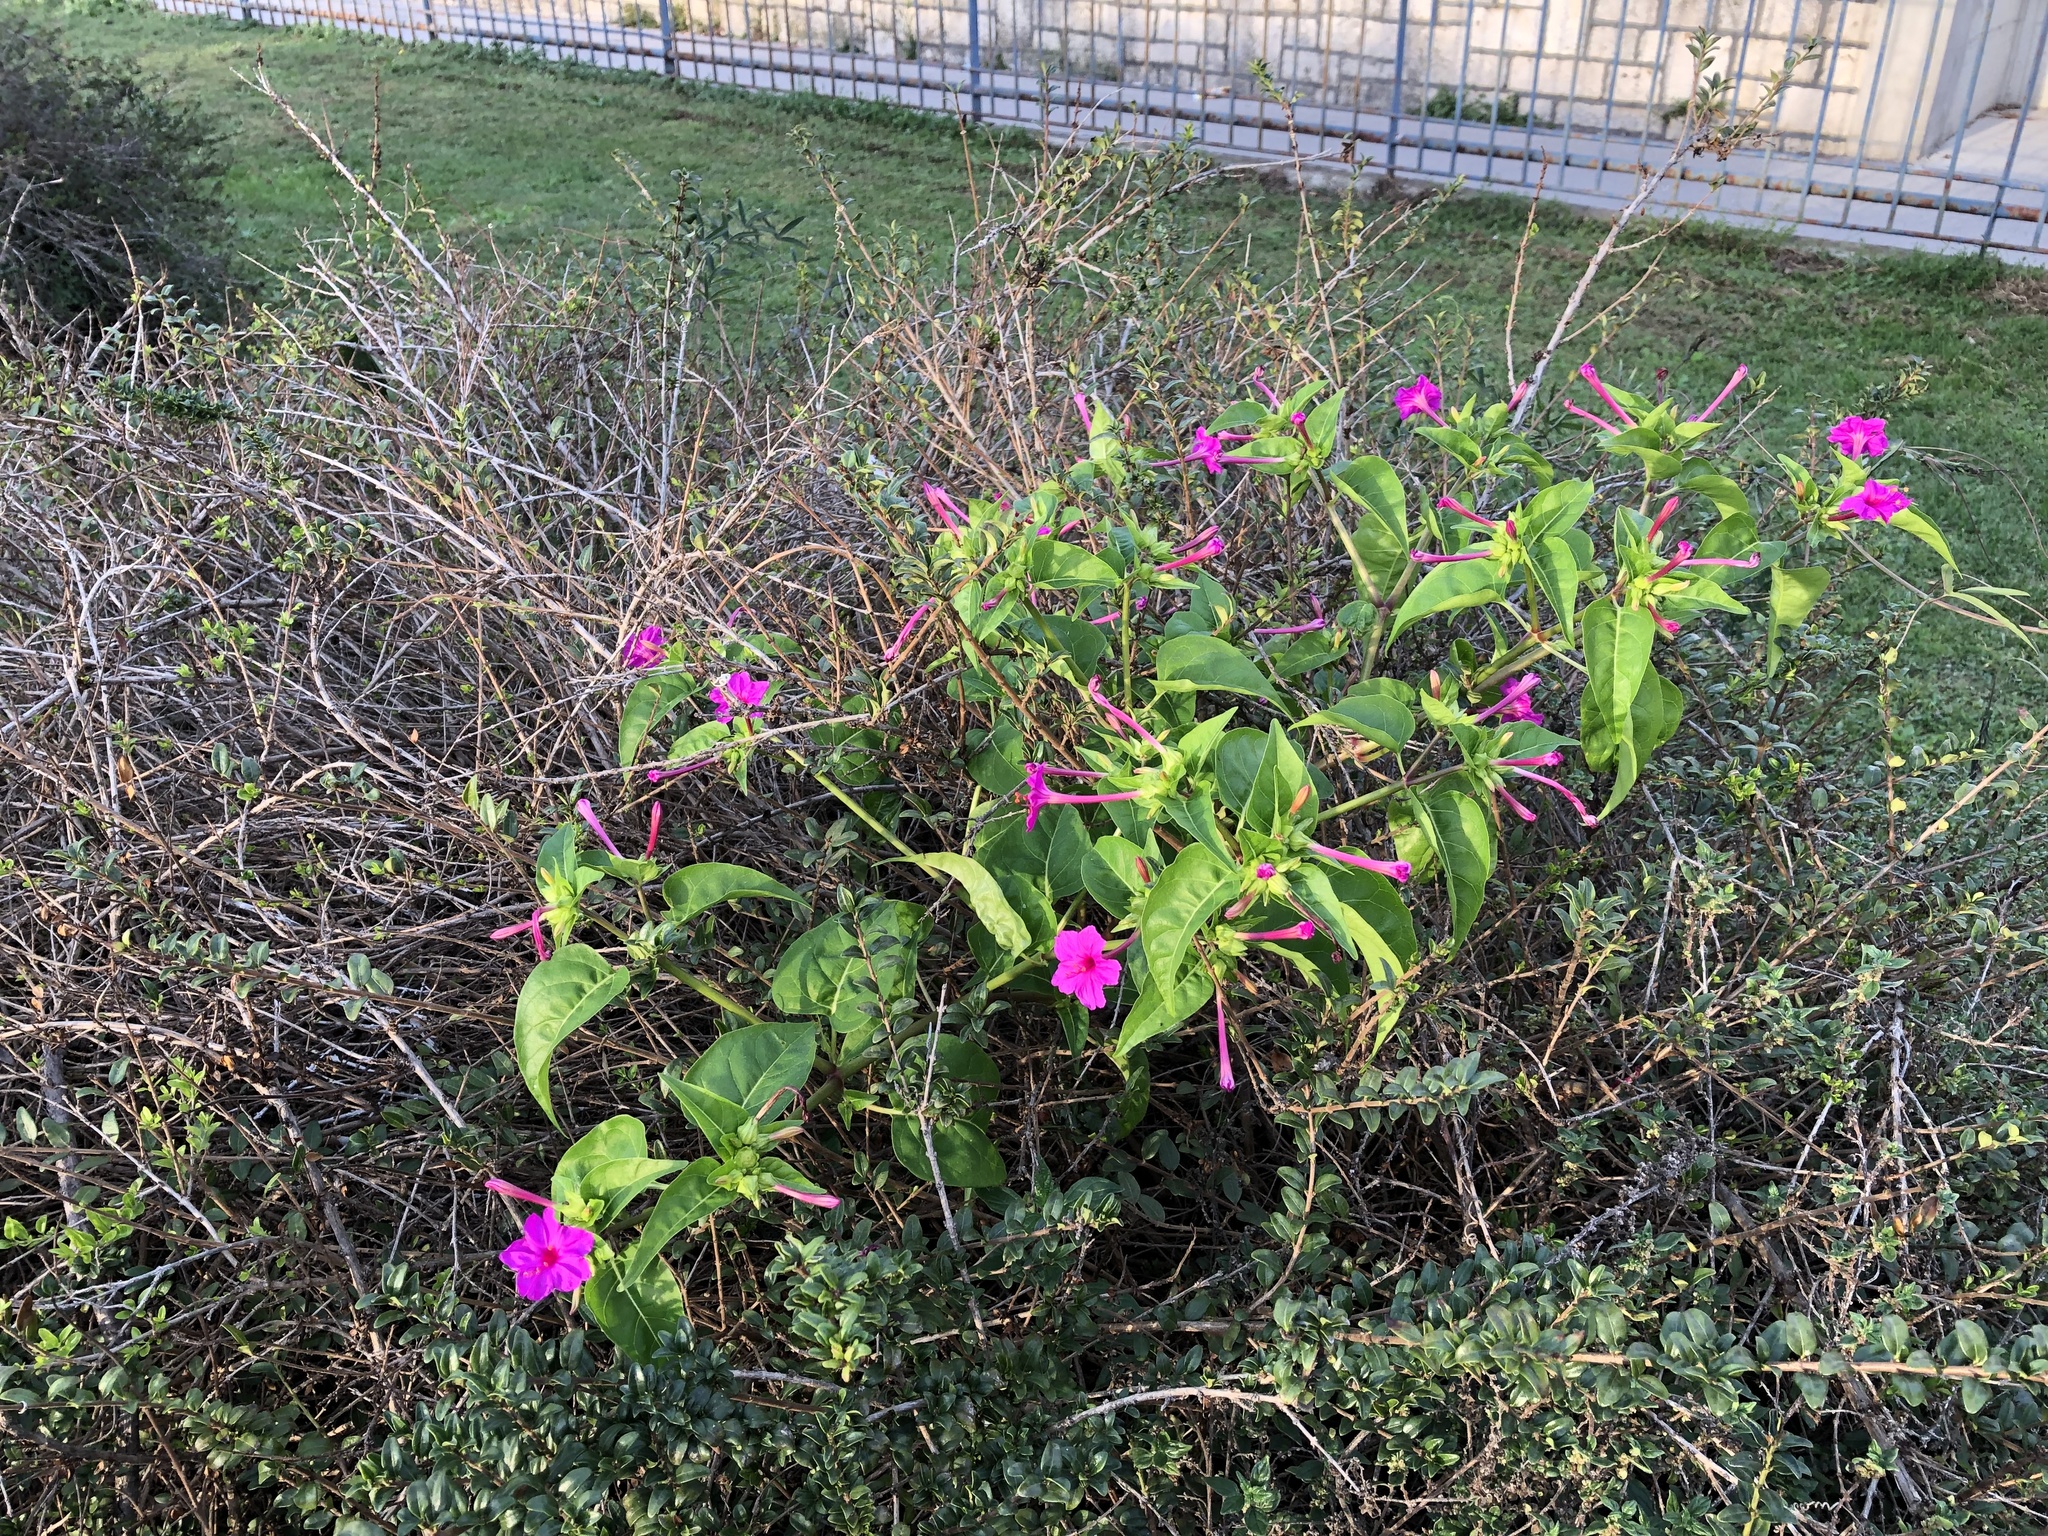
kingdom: Plantae
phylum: Tracheophyta
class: Magnoliopsida
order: Caryophyllales
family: Nyctaginaceae
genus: Mirabilis
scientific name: Mirabilis jalapa
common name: Marvel-of-peru
